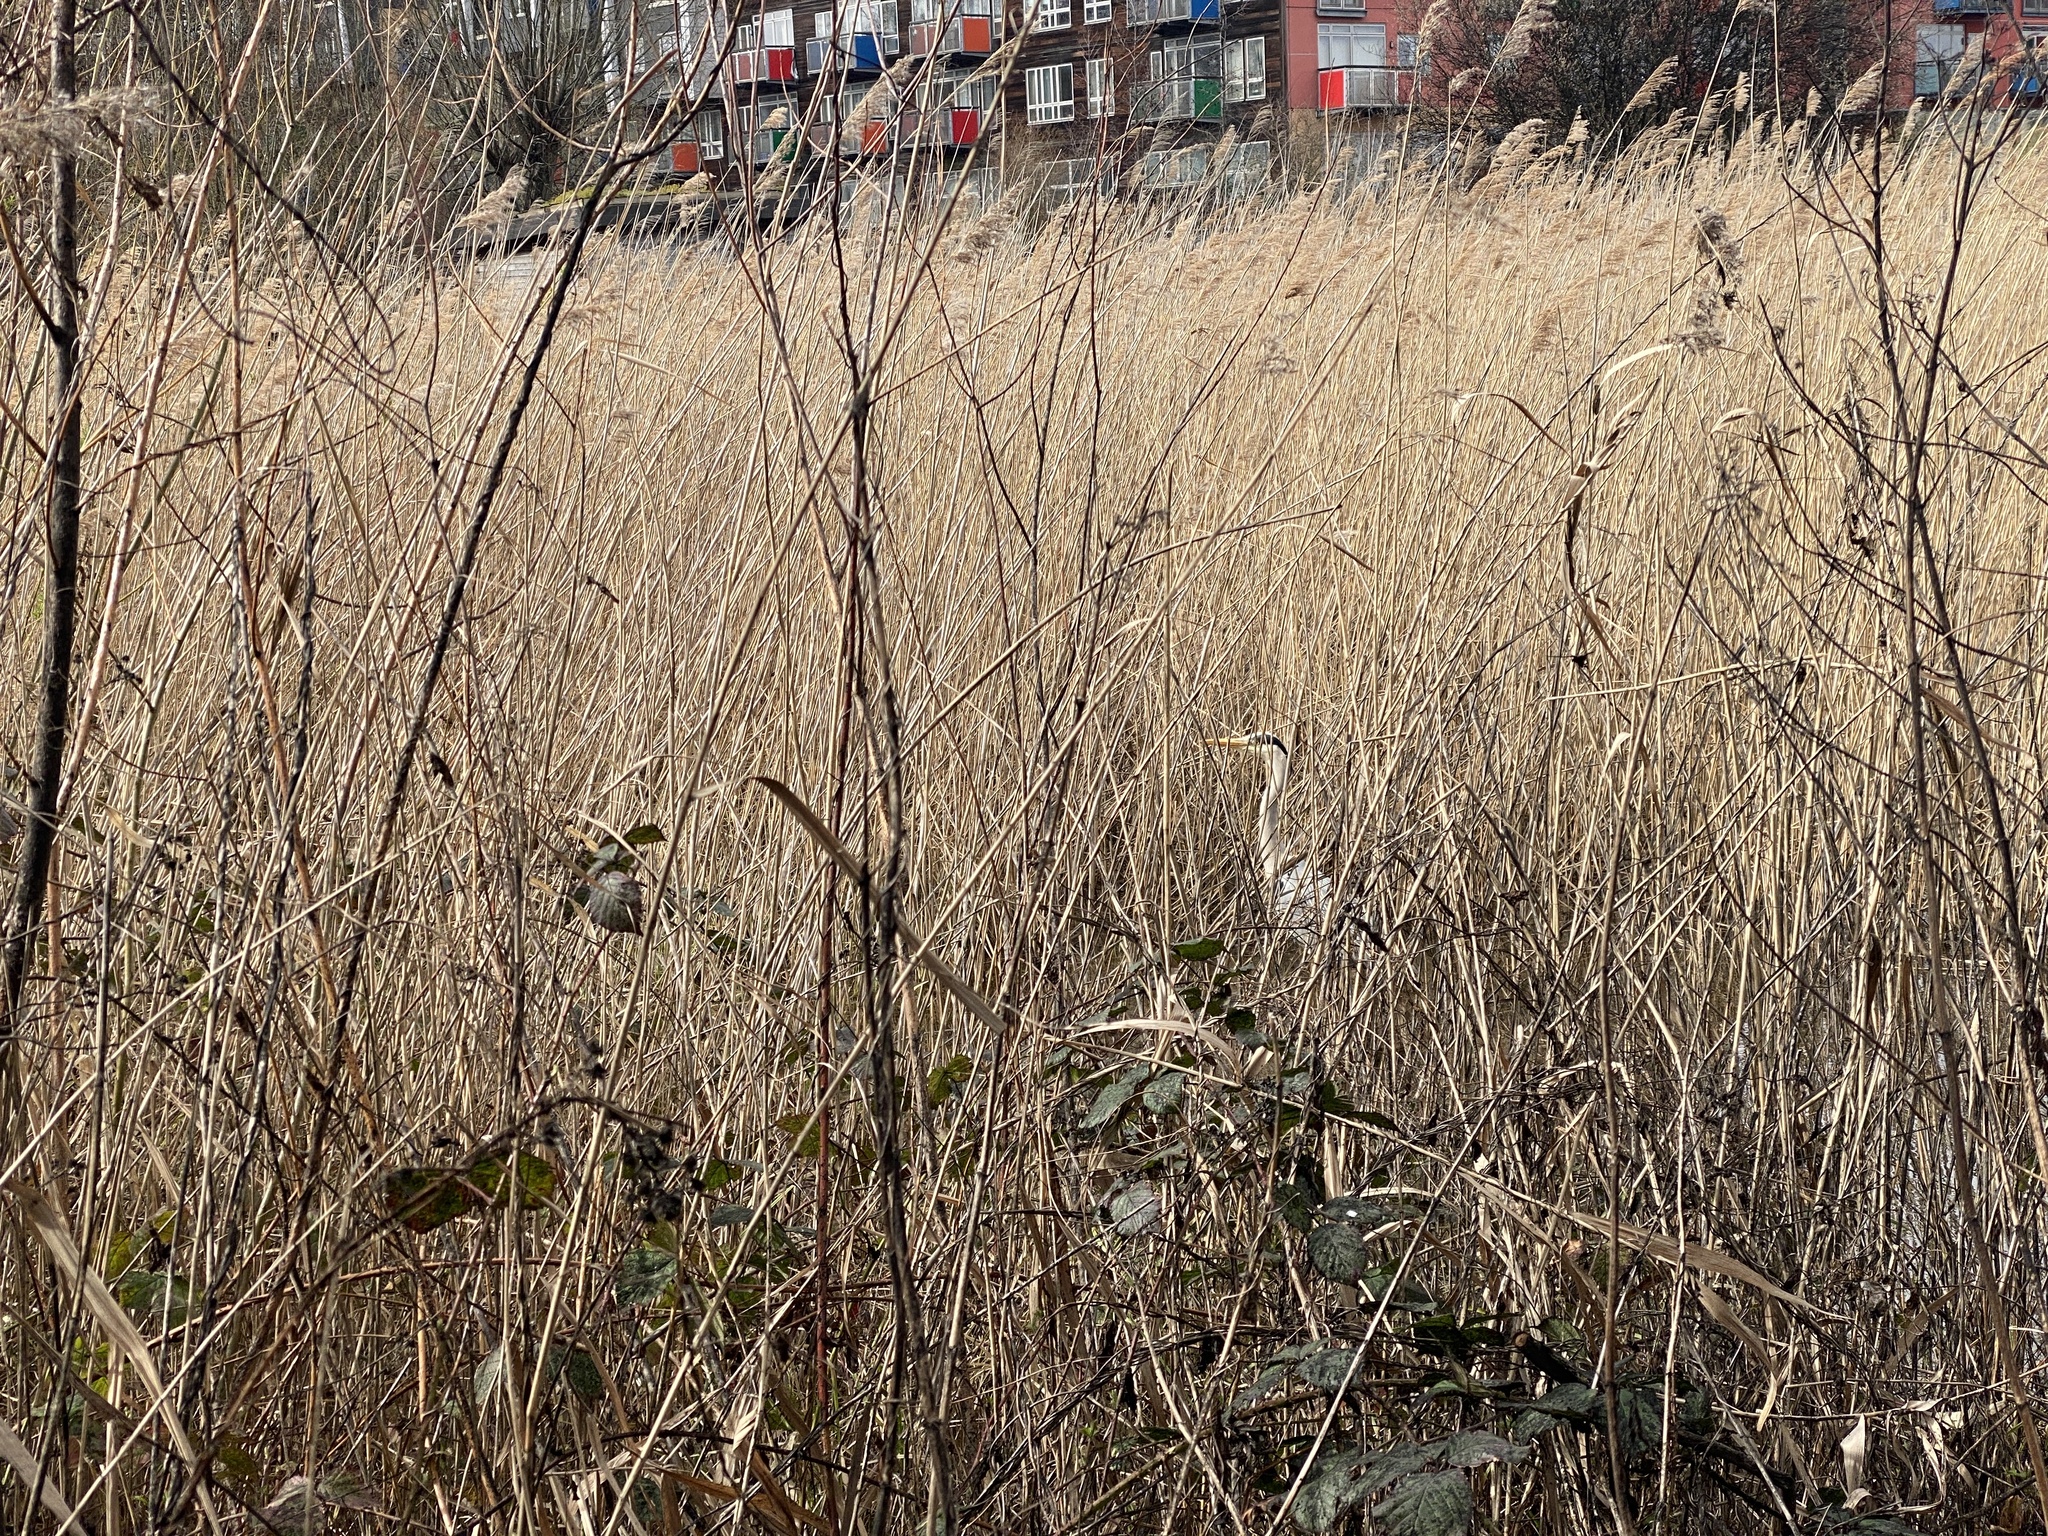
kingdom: Animalia
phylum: Chordata
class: Aves
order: Pelecaniformes
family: Ardeidae
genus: Ardea
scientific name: Ardea cinerea
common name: Grey heron
